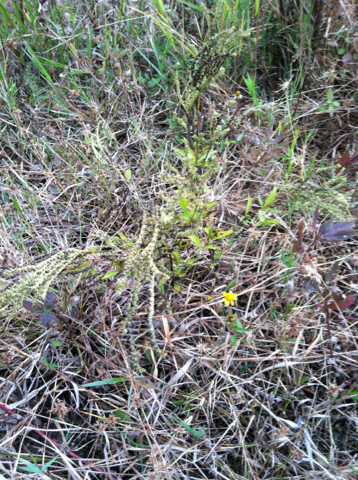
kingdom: Plantae
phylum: Tracheophyta
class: Magnoliopsida
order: Gentianales
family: Loganiaceae
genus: Mitreola
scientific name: Mitreola petiolata
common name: Lax hornpod
